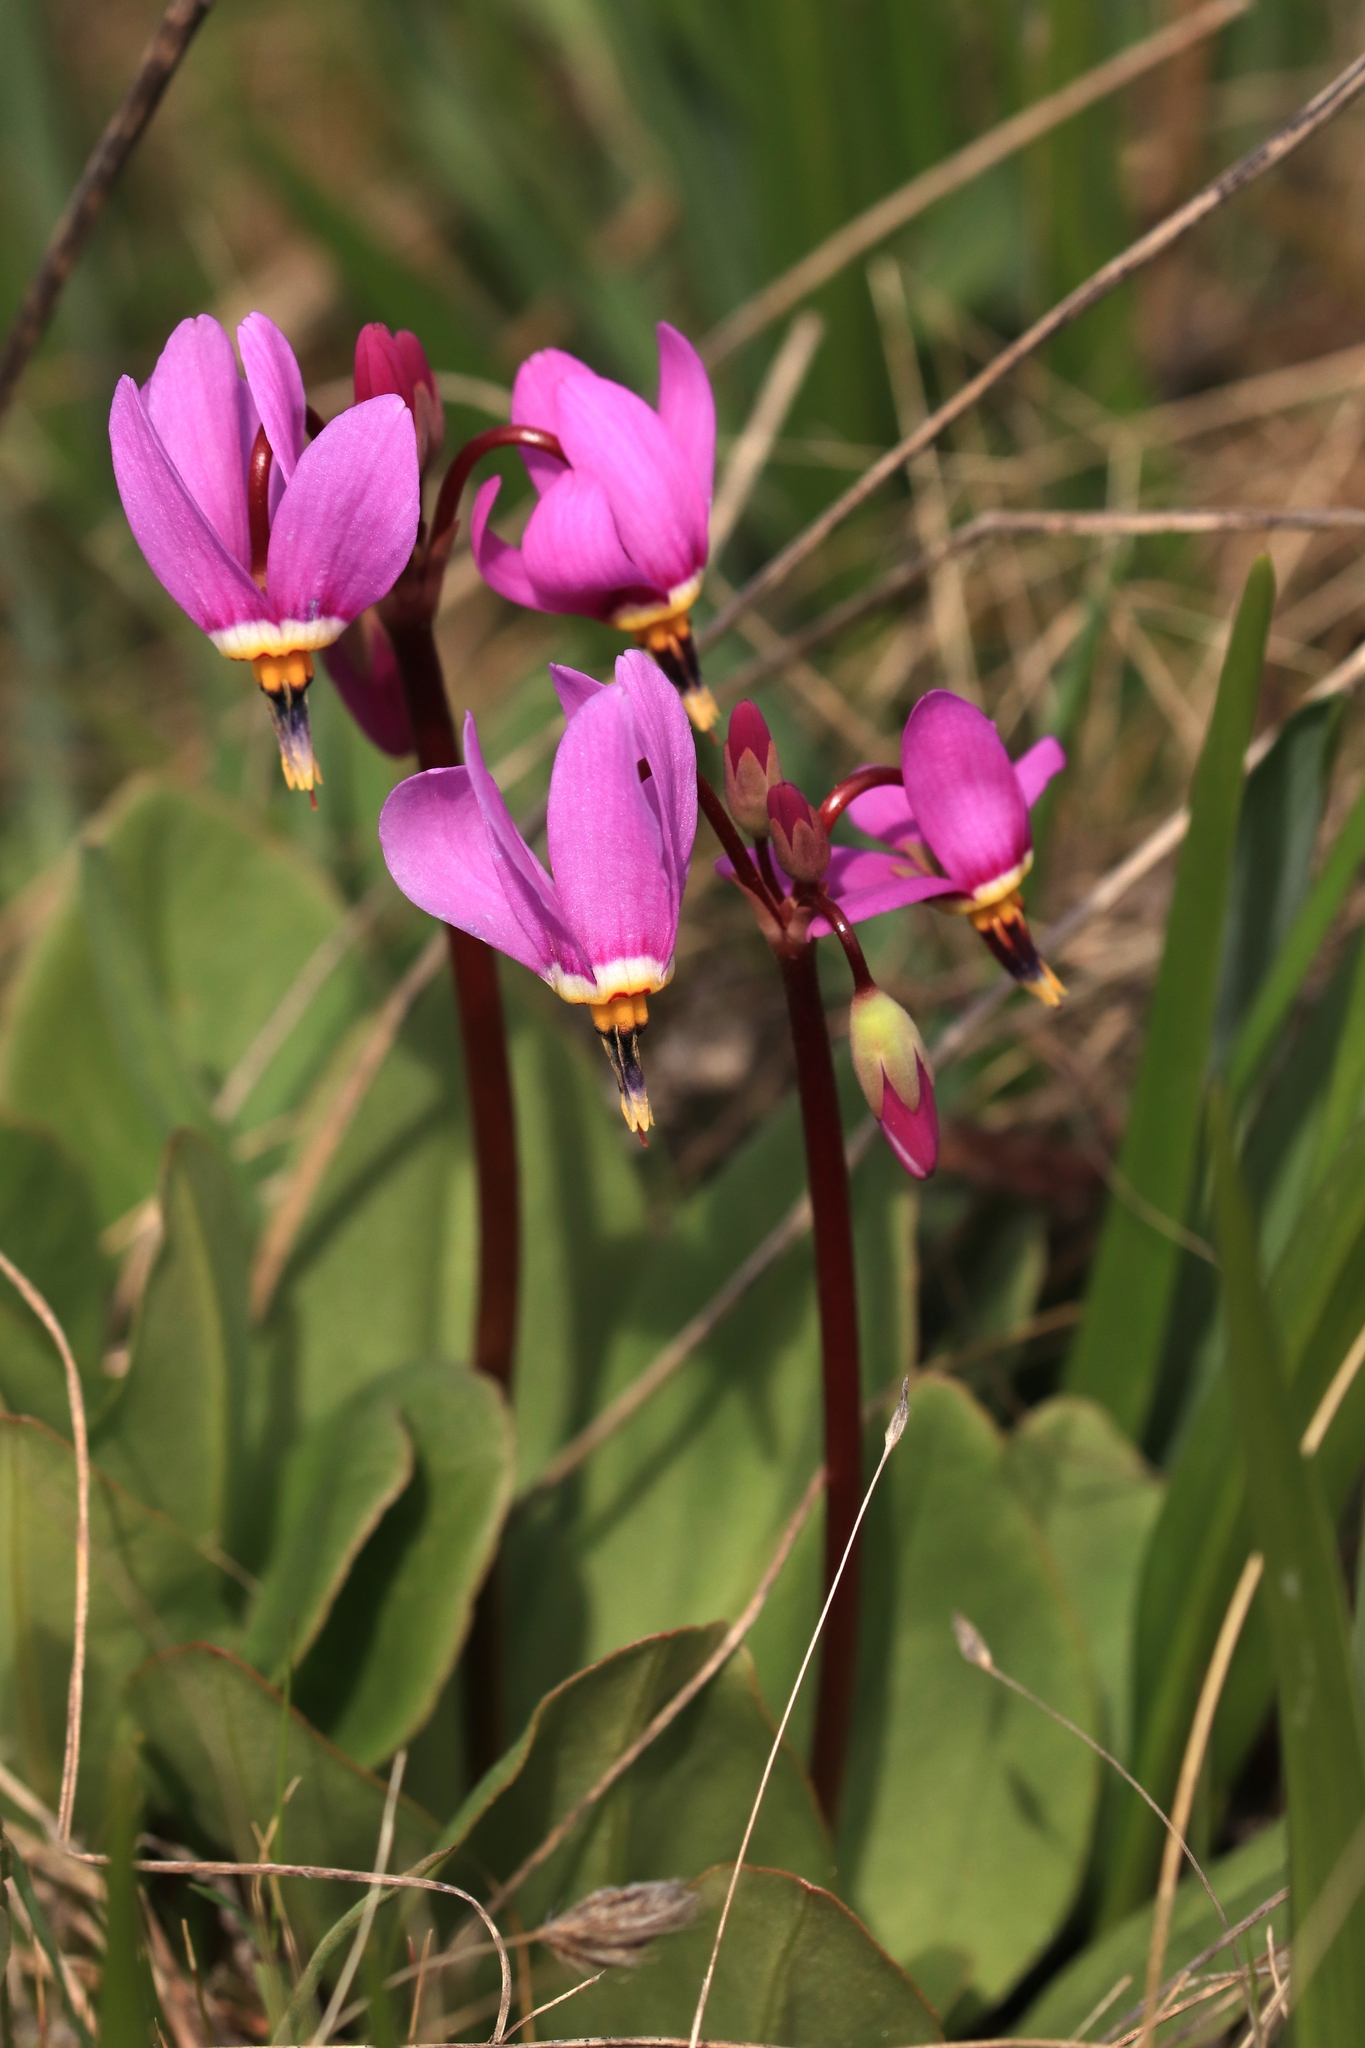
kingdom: Plantae
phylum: Tracheophyta
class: Magnoliopsida
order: Ericales
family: Primulaceae
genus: Dodecatheon
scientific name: Dodecatheon pulchellum
